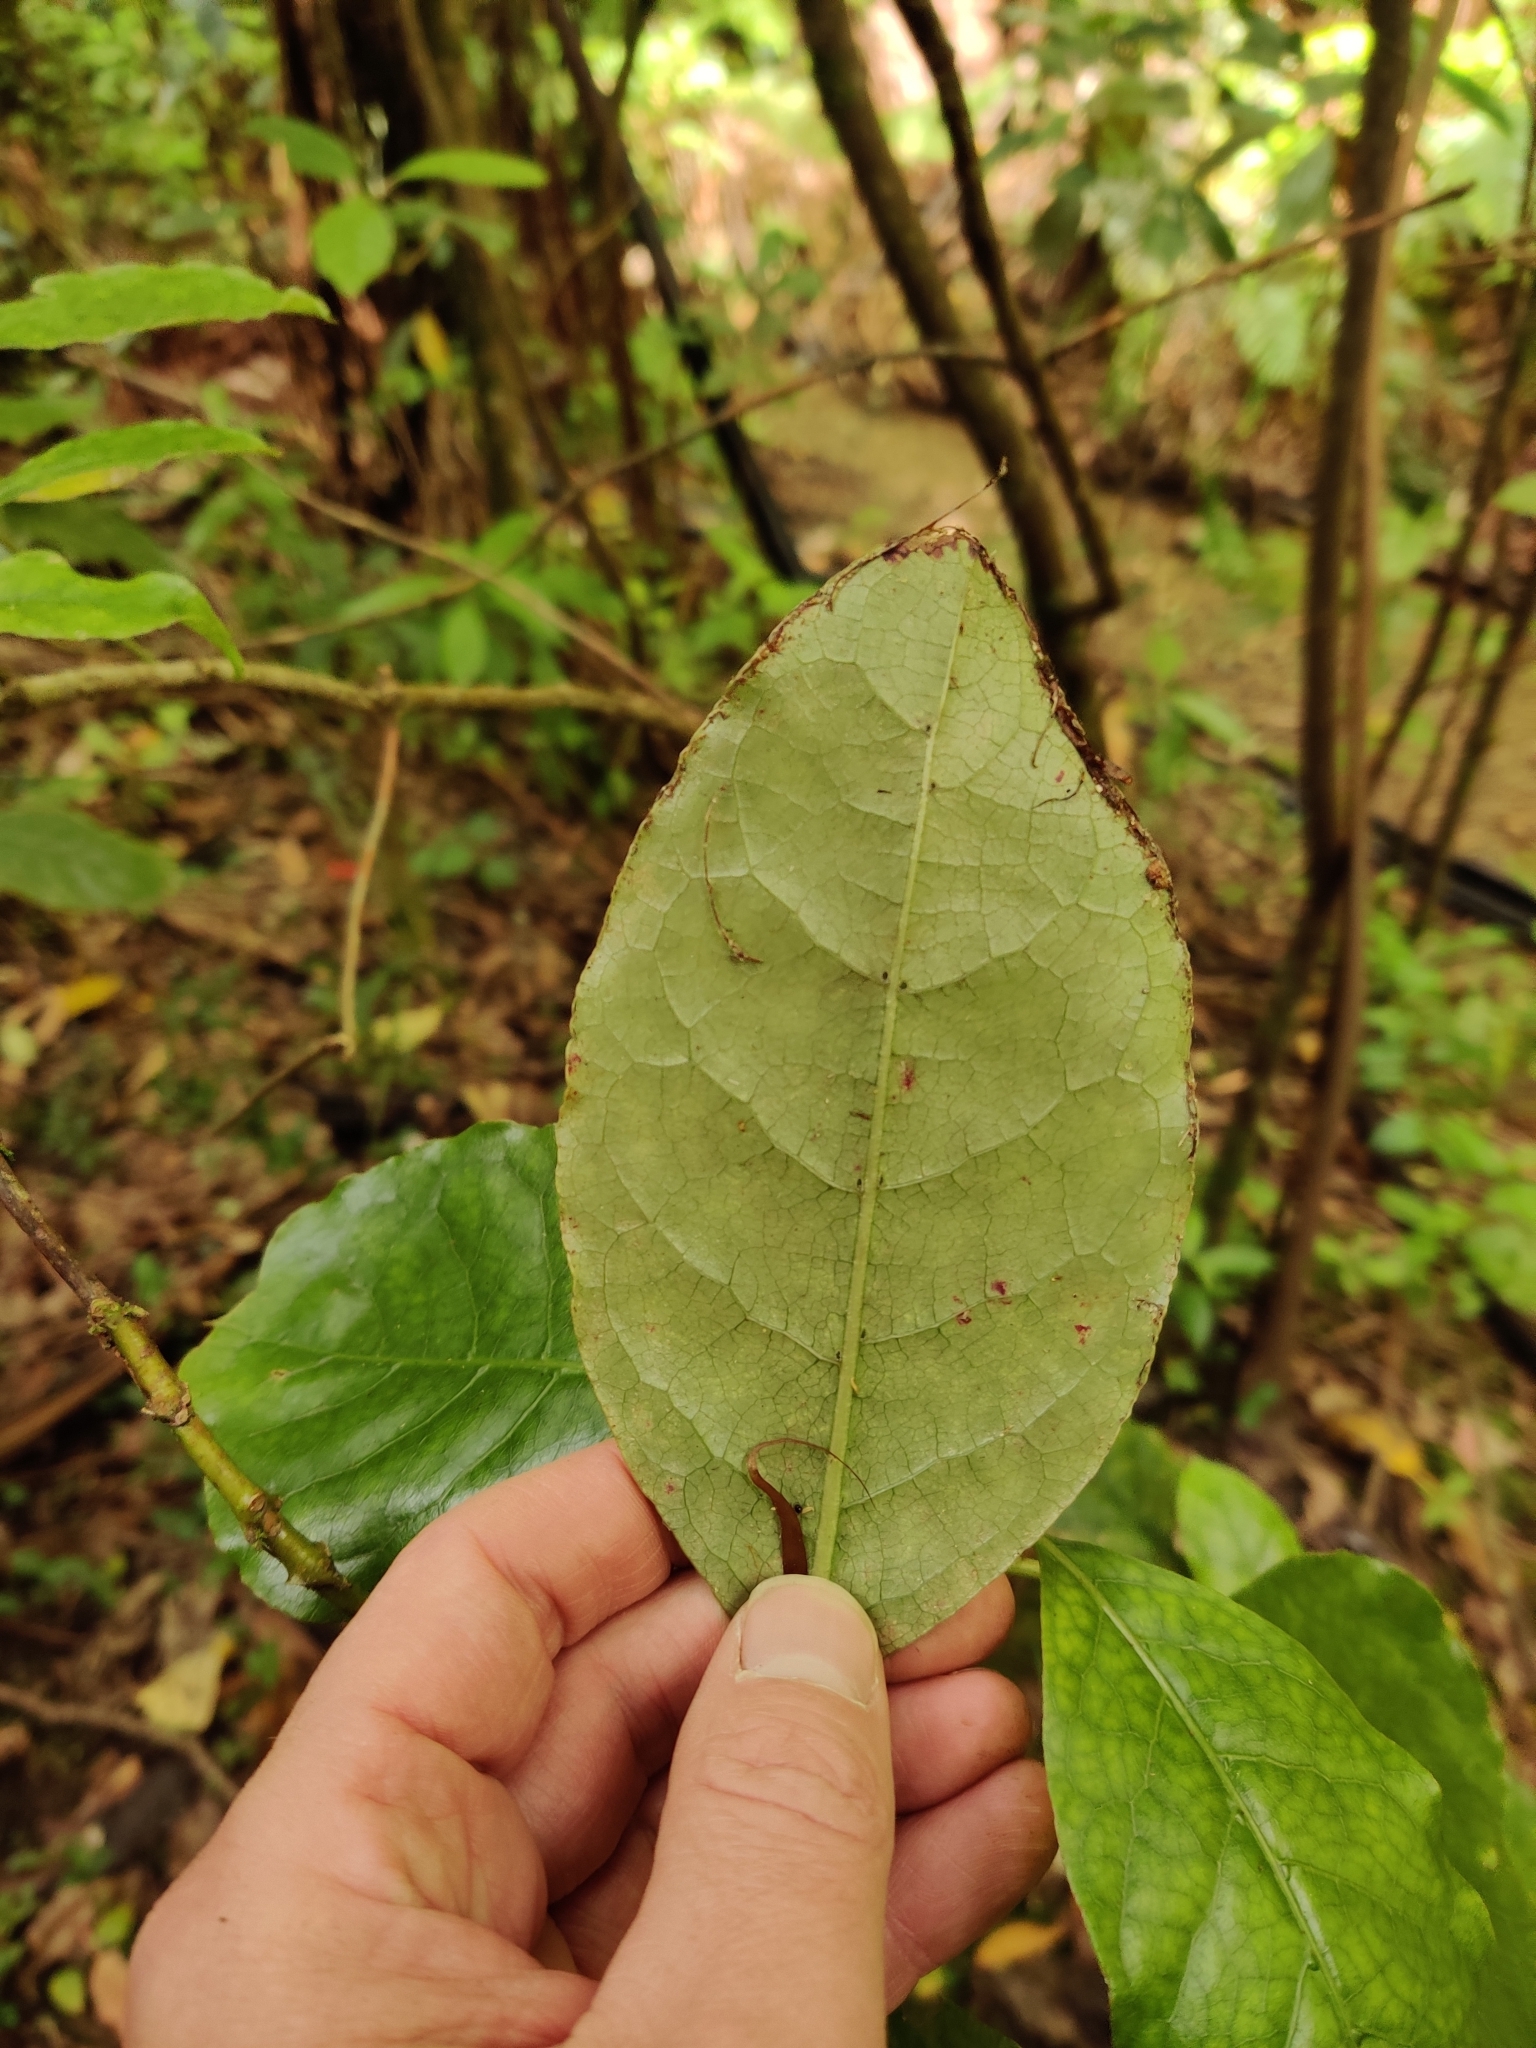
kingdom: Plantae
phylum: Tracheophyta
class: Magnoliopsida
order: Gentianales
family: Rubiaceae
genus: Coprosma
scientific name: Coprosma autumnalis
